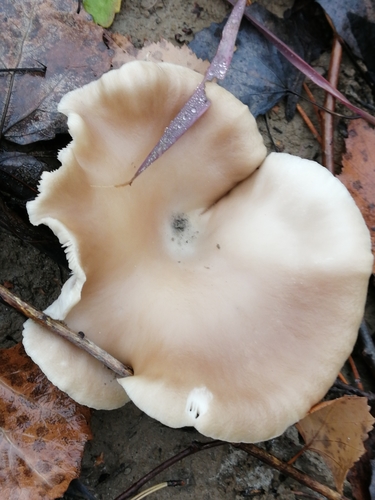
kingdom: Fungi
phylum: Basidiomycota
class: Agaricomycetes
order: Agaricales
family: Pleurotaceae
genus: Pleurotus
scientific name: Pleurotus ostreatus
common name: Oyster mushroom
